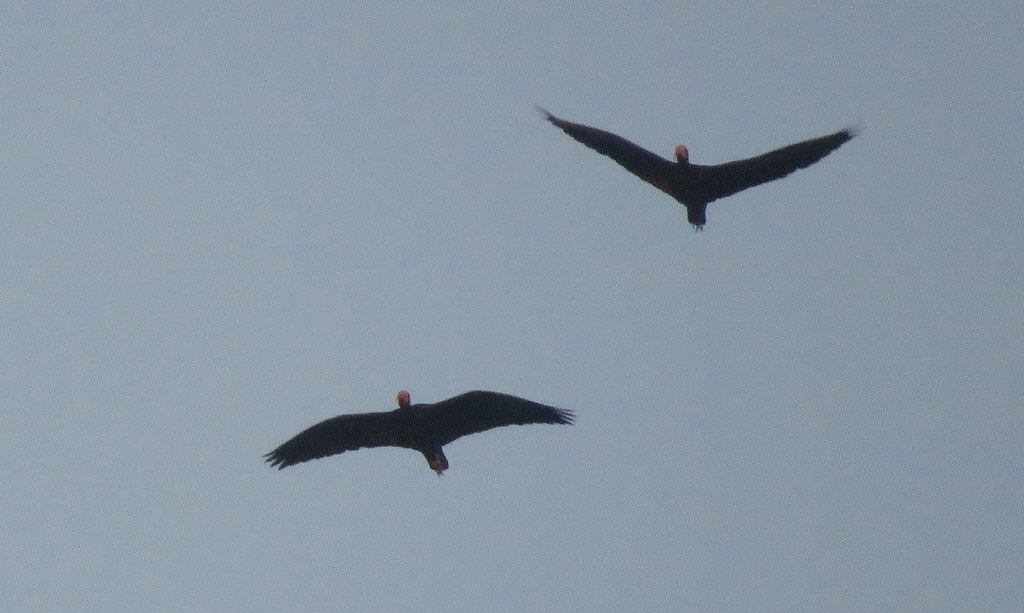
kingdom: Animalia
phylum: Chordata
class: Aves
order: Pelecaniformes
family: Threskiornithidae
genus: Phimosus
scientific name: Phimosus infuscatus
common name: Bare-faced ibis
